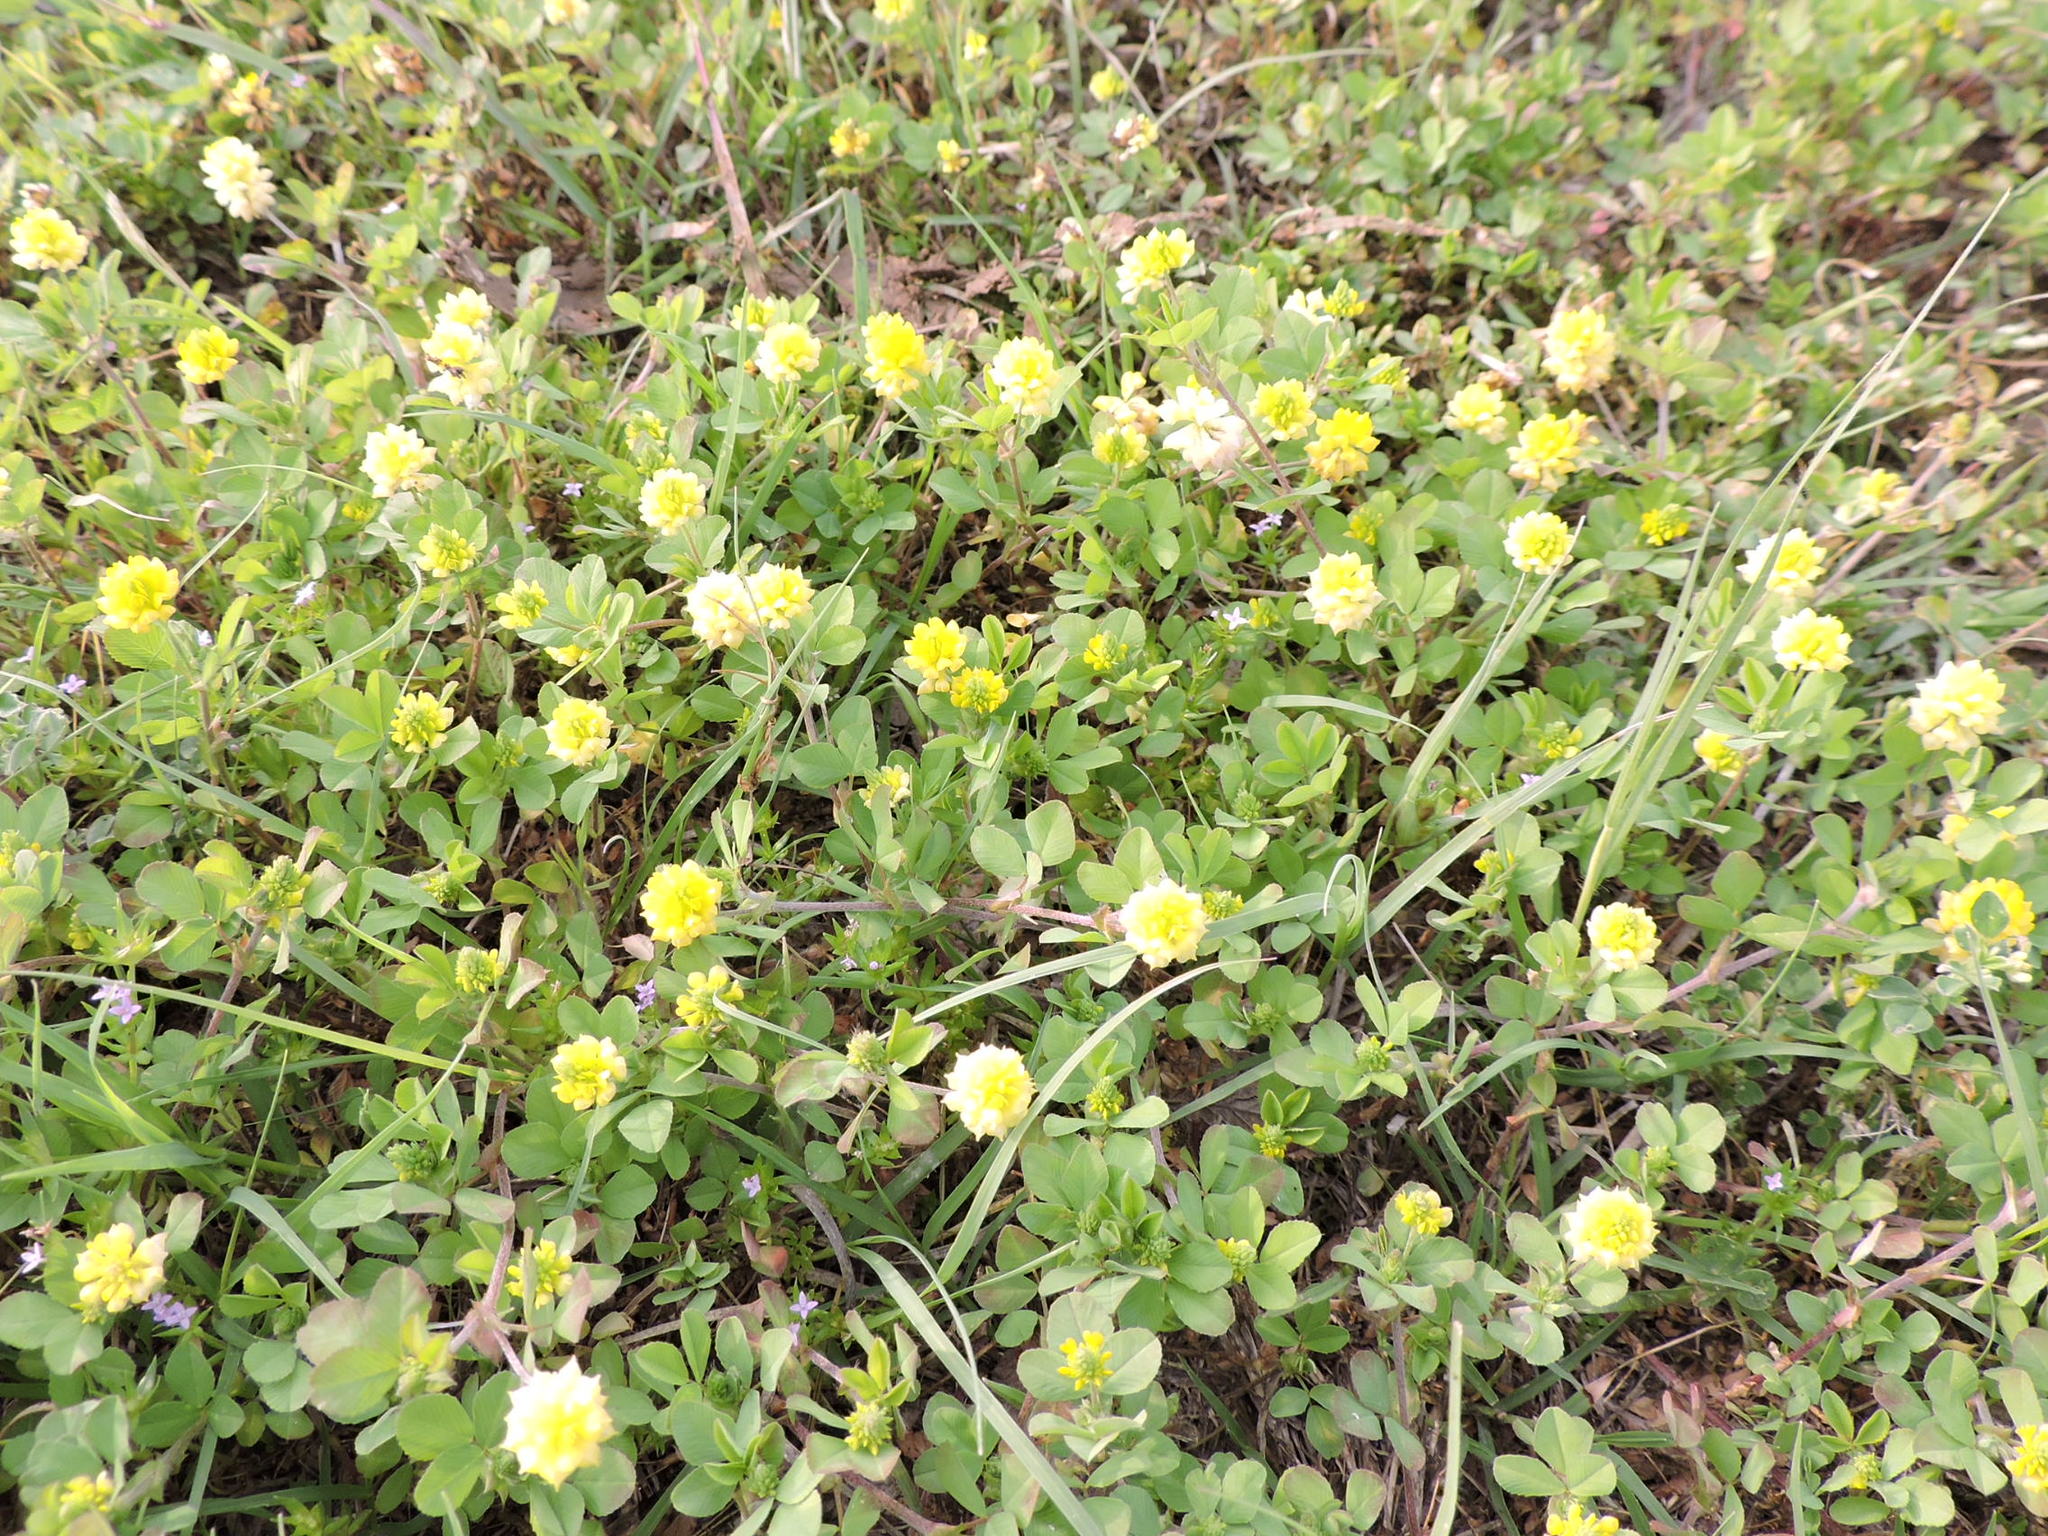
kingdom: Plantae
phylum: Tracheophyta
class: Magnoliopsida
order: Fabales
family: Fabaceae
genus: Trifolium
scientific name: Trifolium campestre
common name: Field clover
